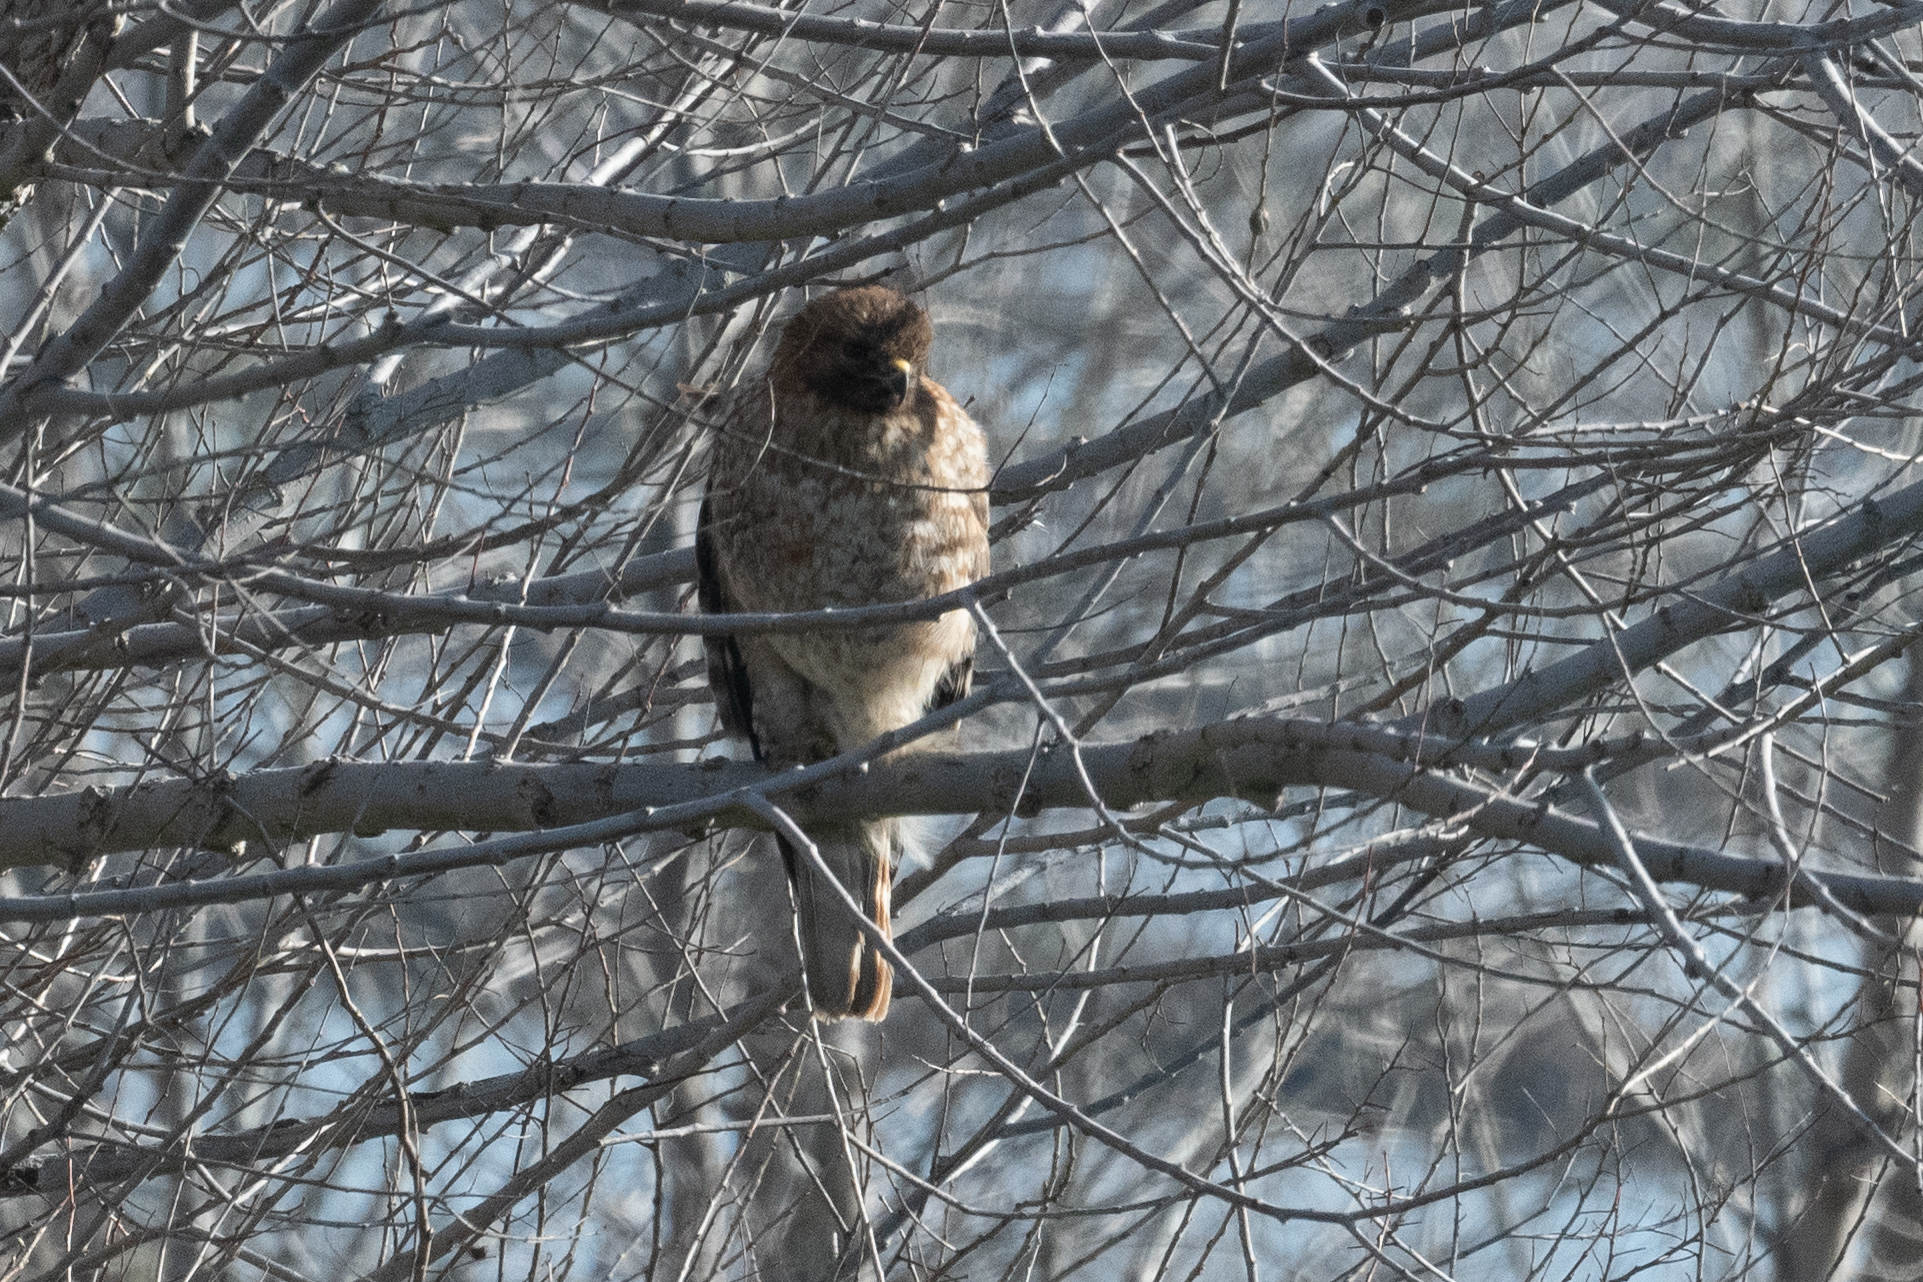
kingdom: Animalia
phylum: Chordata
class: Aves
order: Accipitriformes
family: Accipitridae
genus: Buteo
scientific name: Buteo lineatus
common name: Red-shouldered hawk
